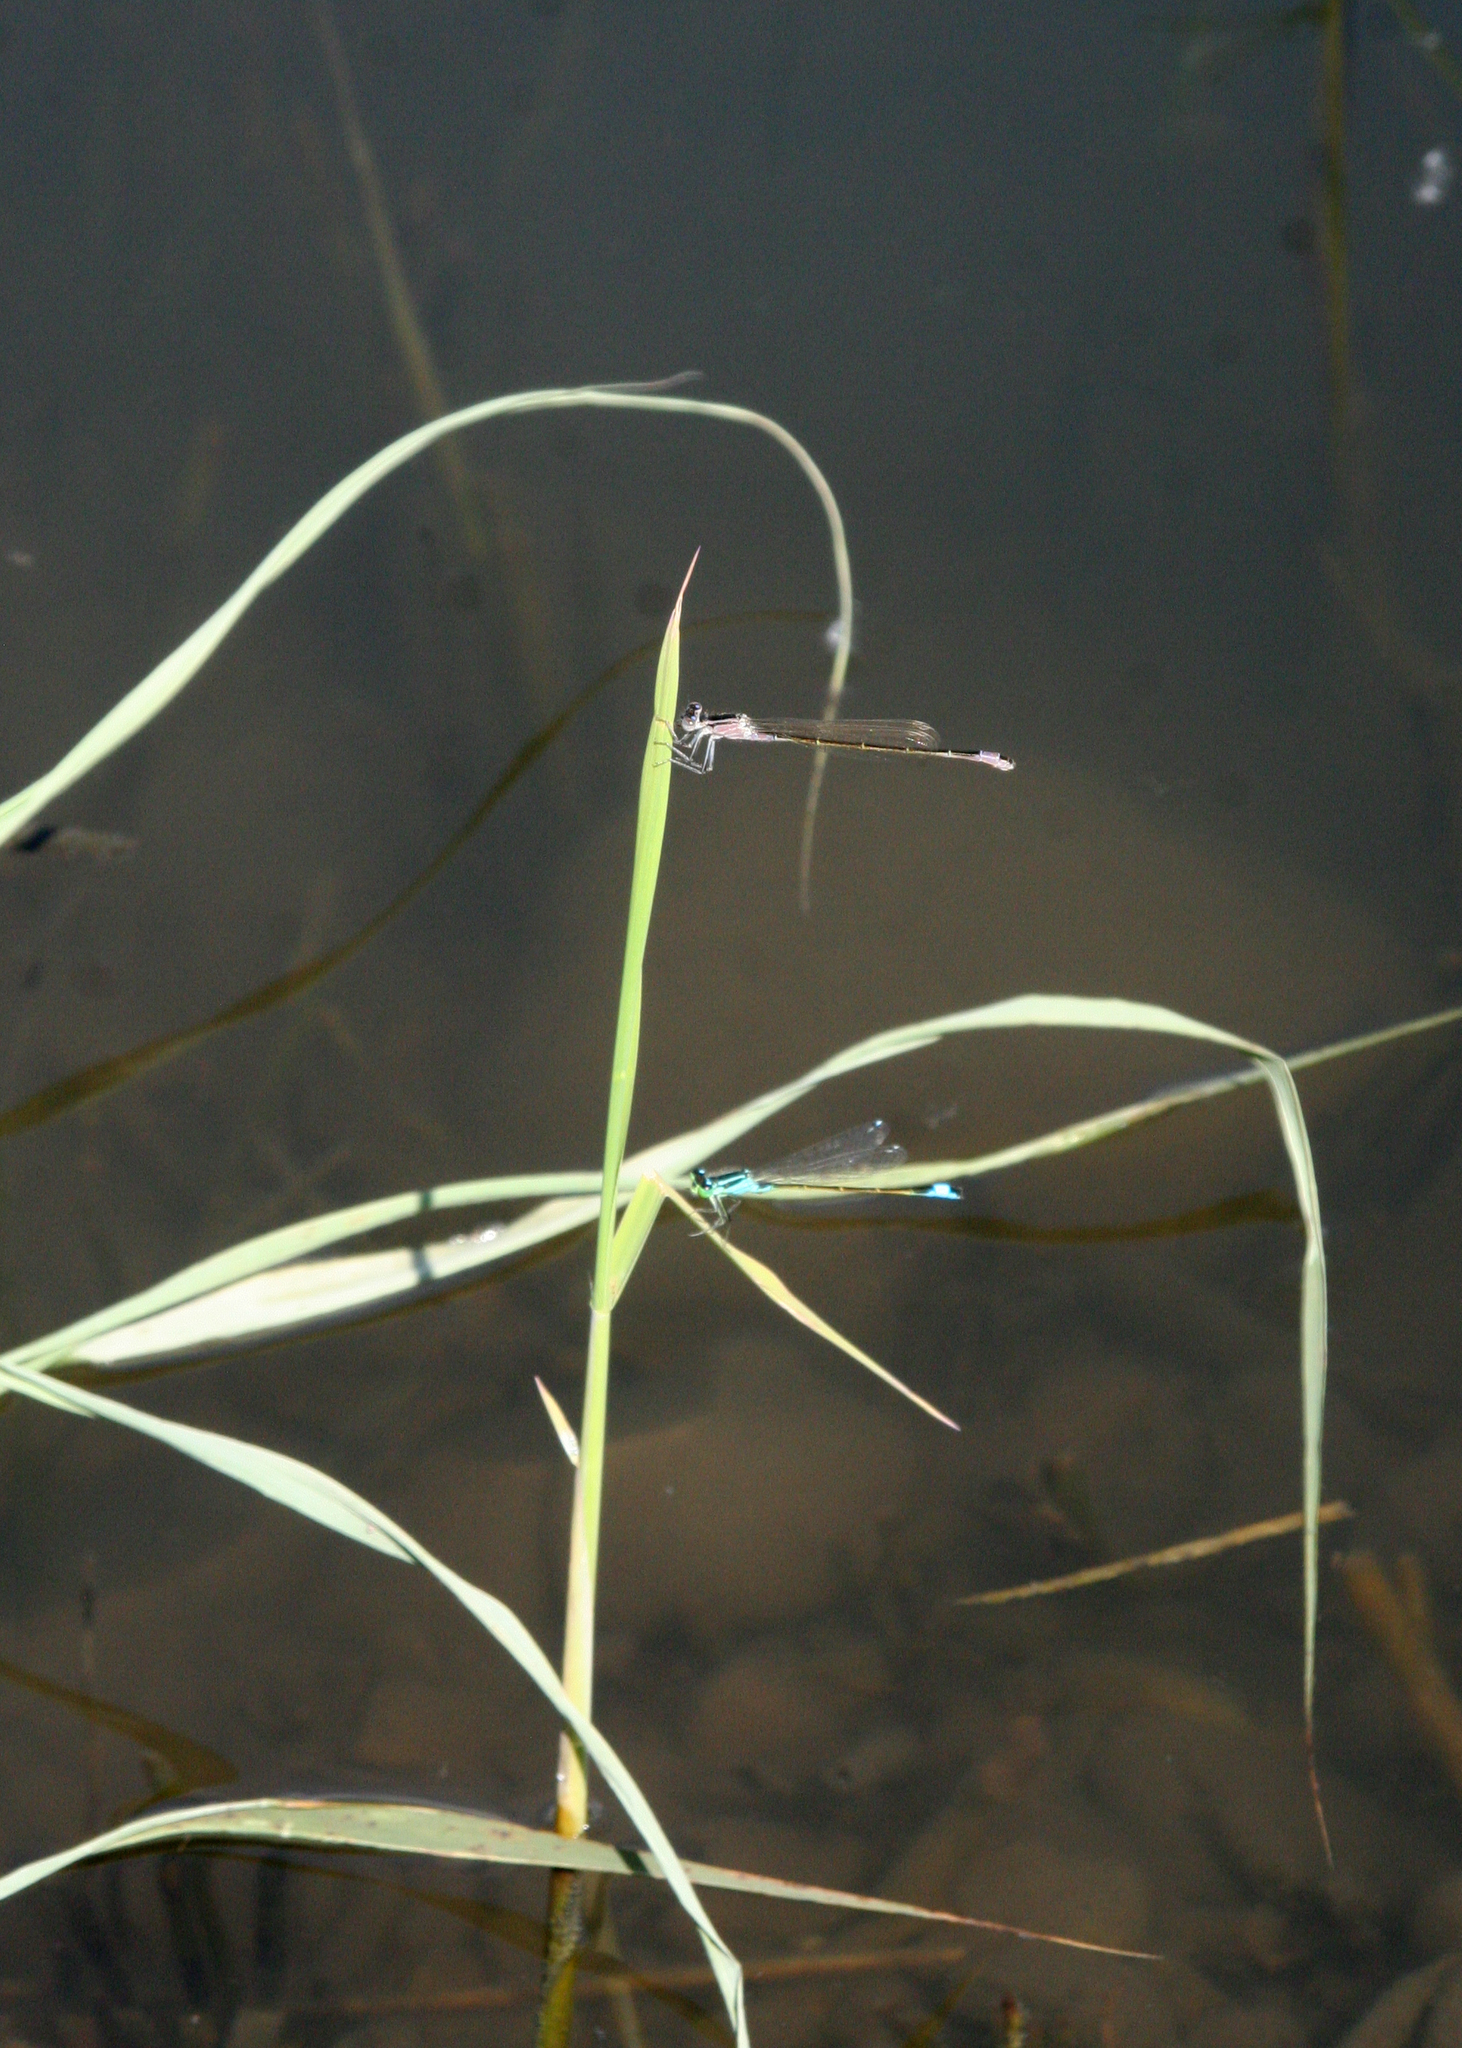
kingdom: Animalia
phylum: Arthropoda
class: Insecta
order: Odonata
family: Coenagrionidae
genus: Ischnura
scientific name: Ischnura elegans
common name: Blue-tailed damselfly
